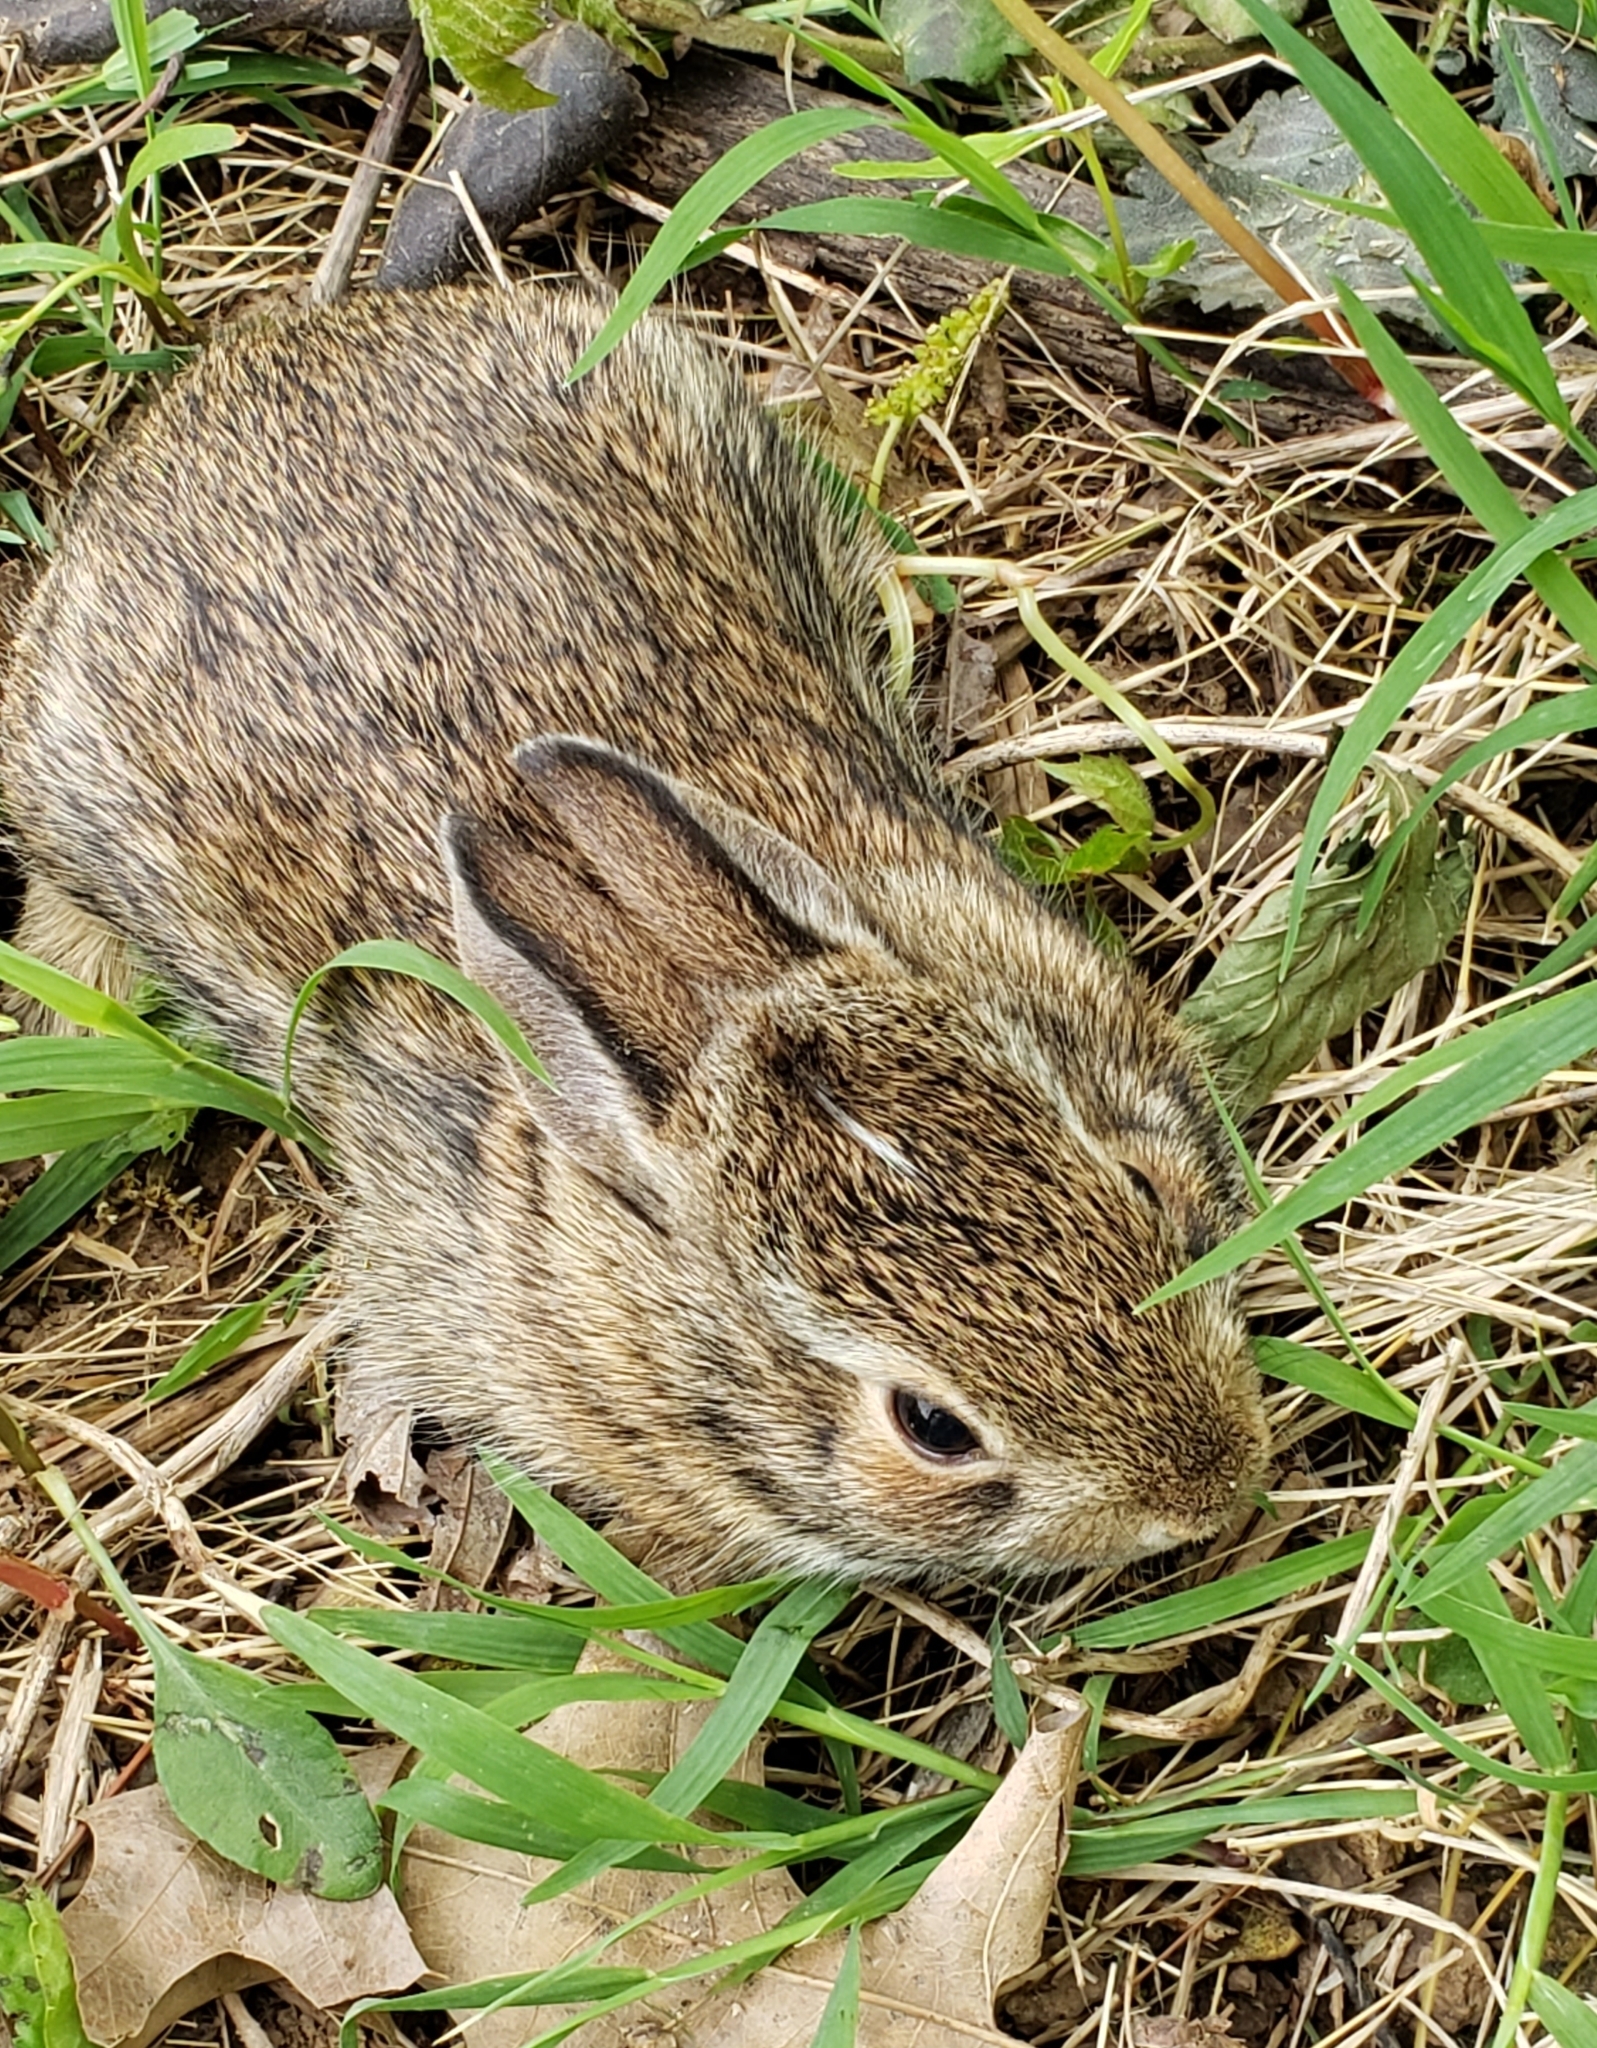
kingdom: Animalia
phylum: Chordata
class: Mammalia
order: Lagomorpha
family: Leporidae
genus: Sylvilagus
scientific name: Sylvilagus floridanus
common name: Eastern cottontail
